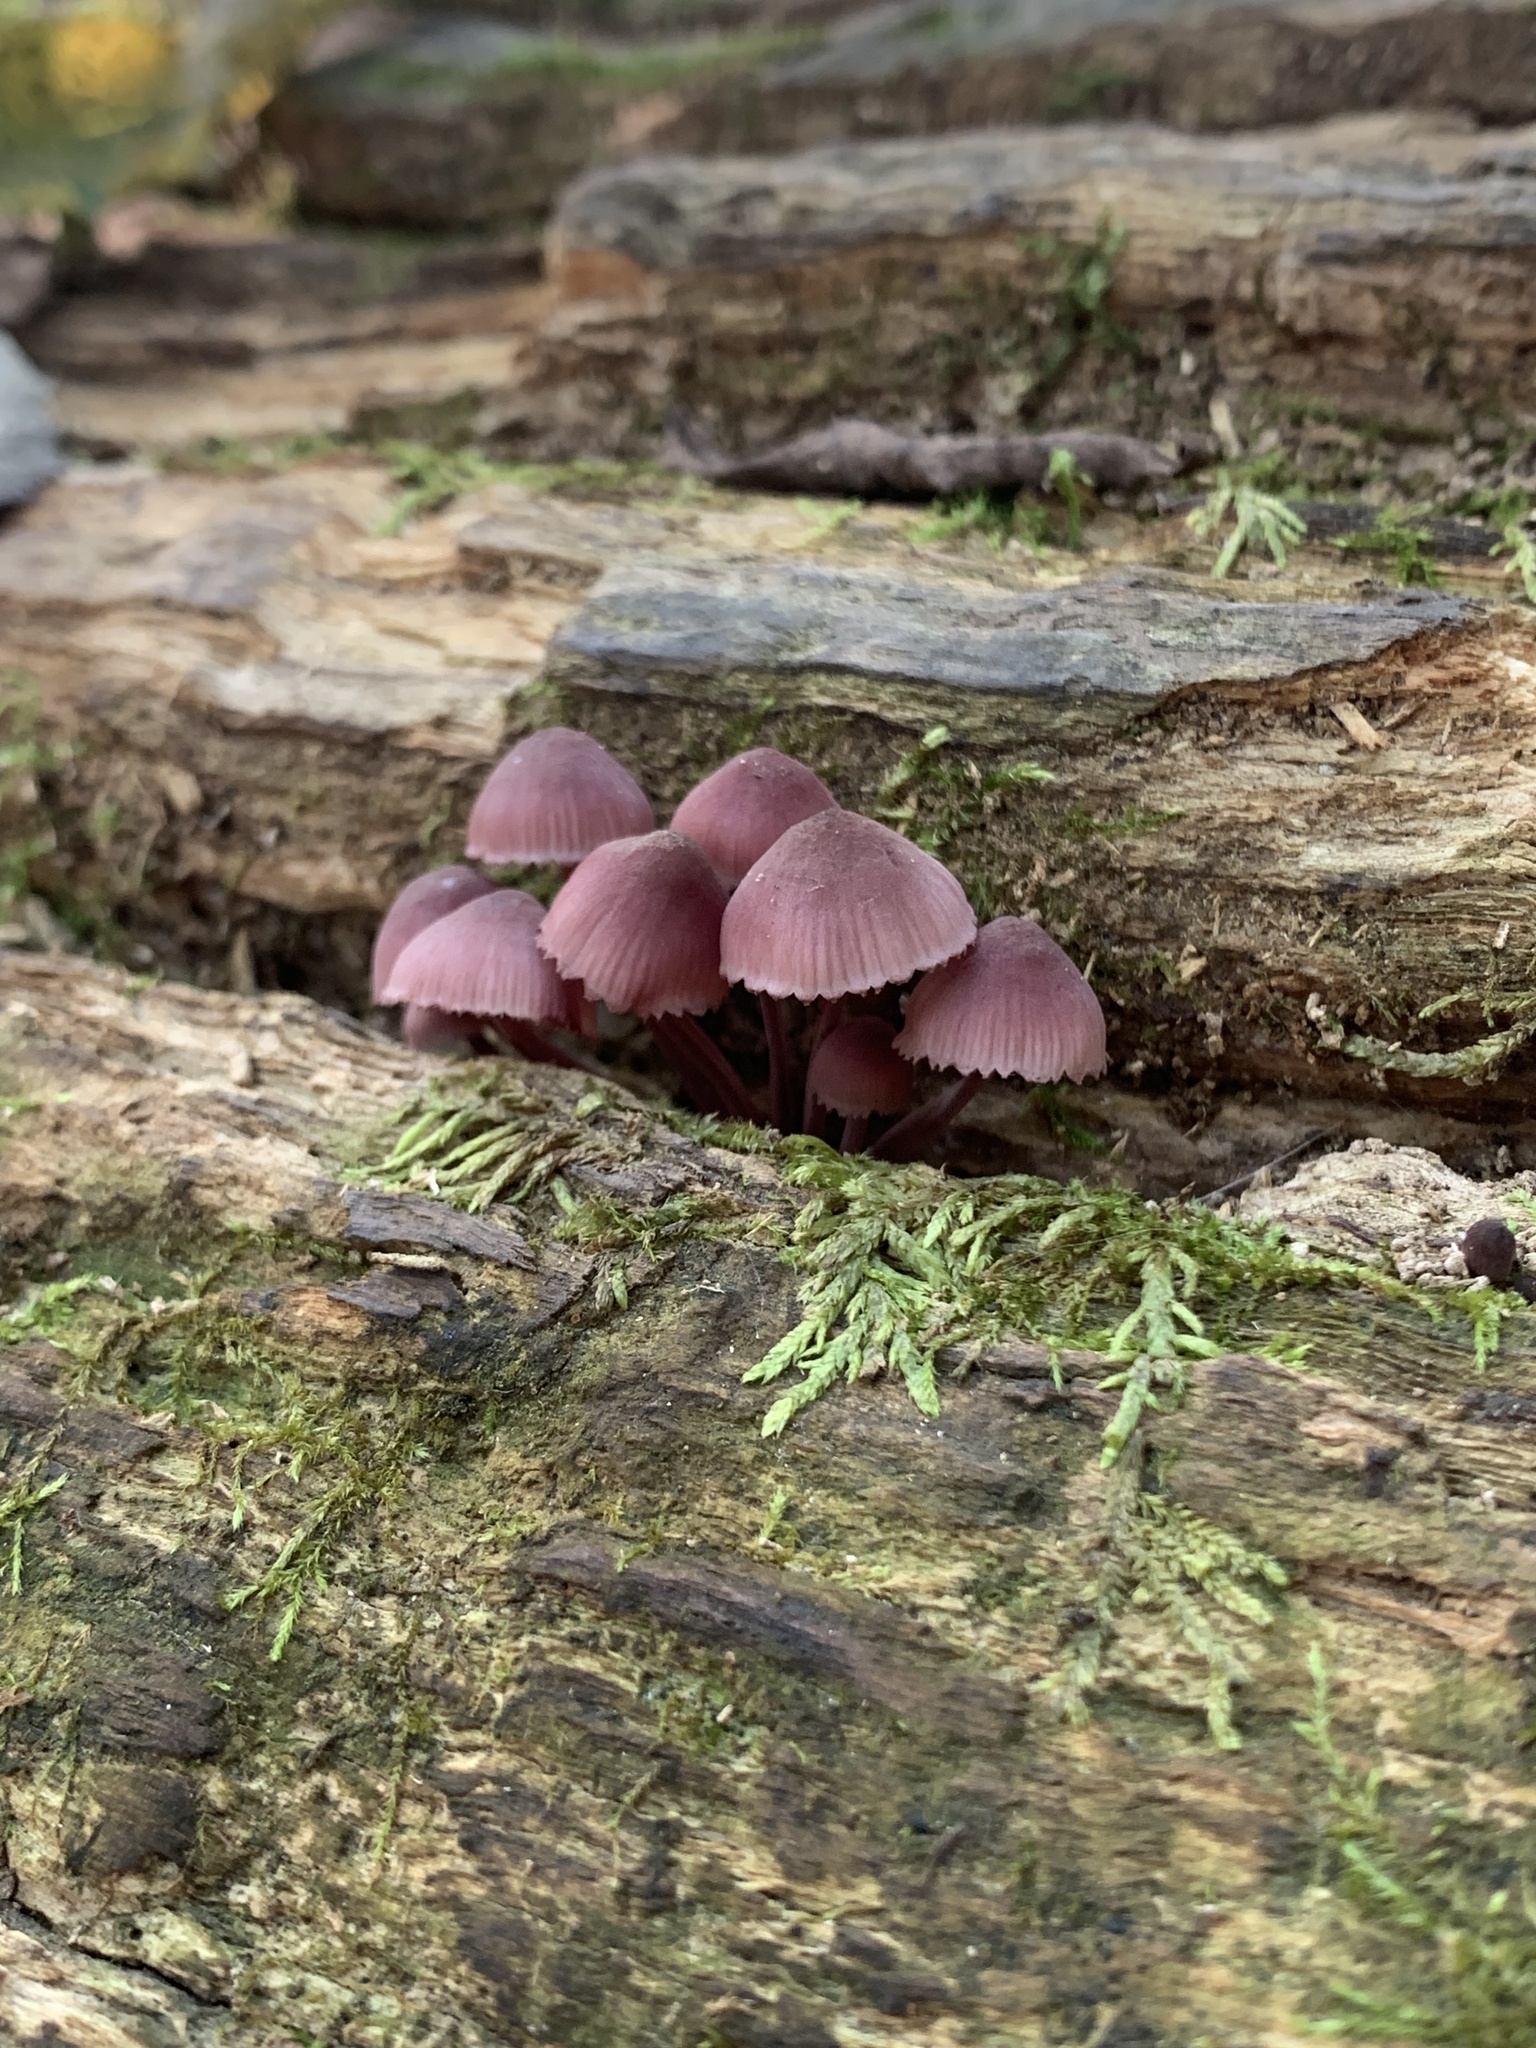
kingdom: Fungi
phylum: Basidiomycota
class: Agaricomycetes
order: Agaricales
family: Mycenaceae
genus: Mycena
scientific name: Mycena haematopus
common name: Burgundydrop bonnet
